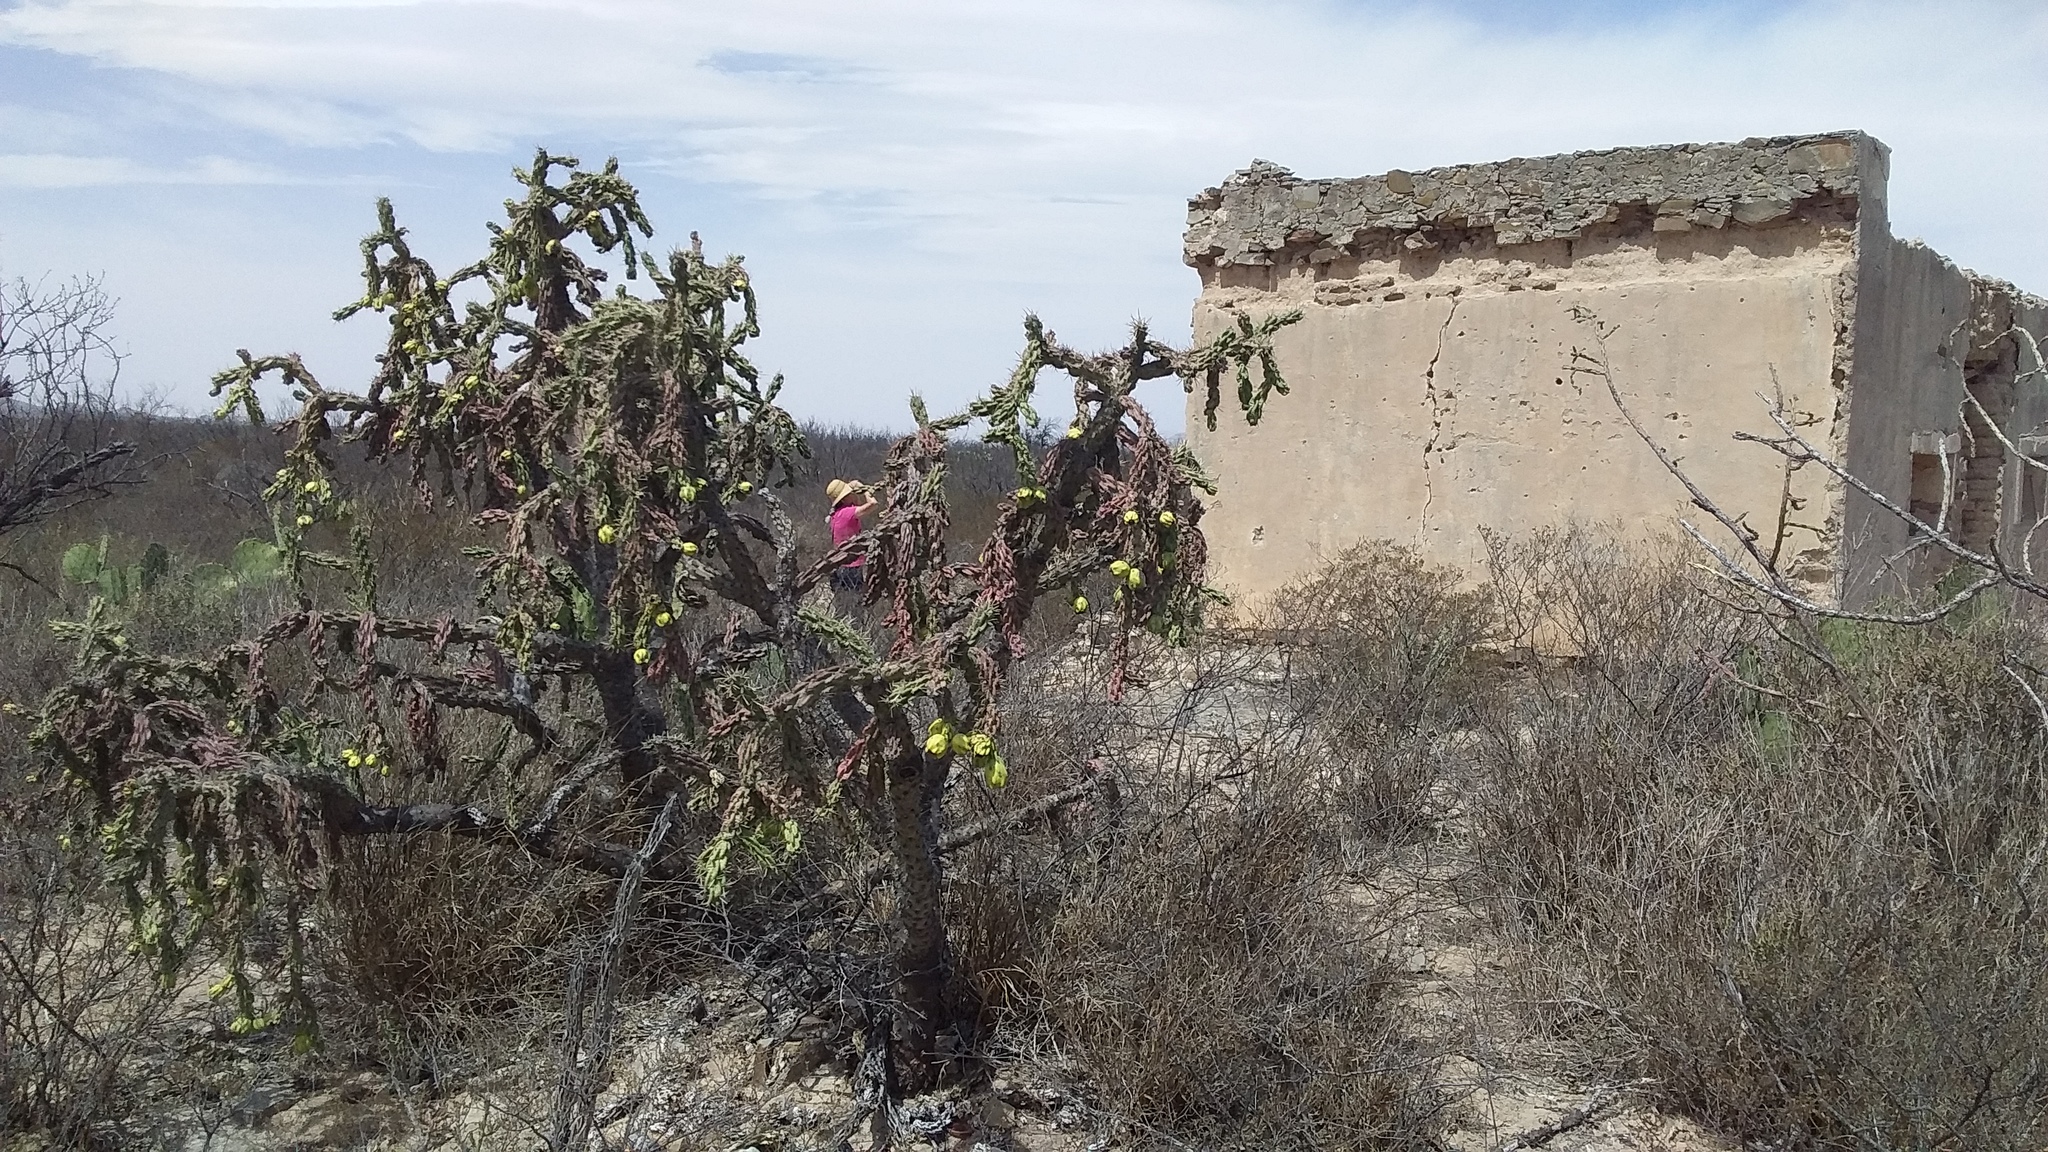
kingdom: Plantae
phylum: Tracheophyta
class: Magnoliopsida
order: Caryophyllales
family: Cactaceae
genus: Cylindropuntia
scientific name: Cylindropuntia imbricata
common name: Candelabrum cactus
